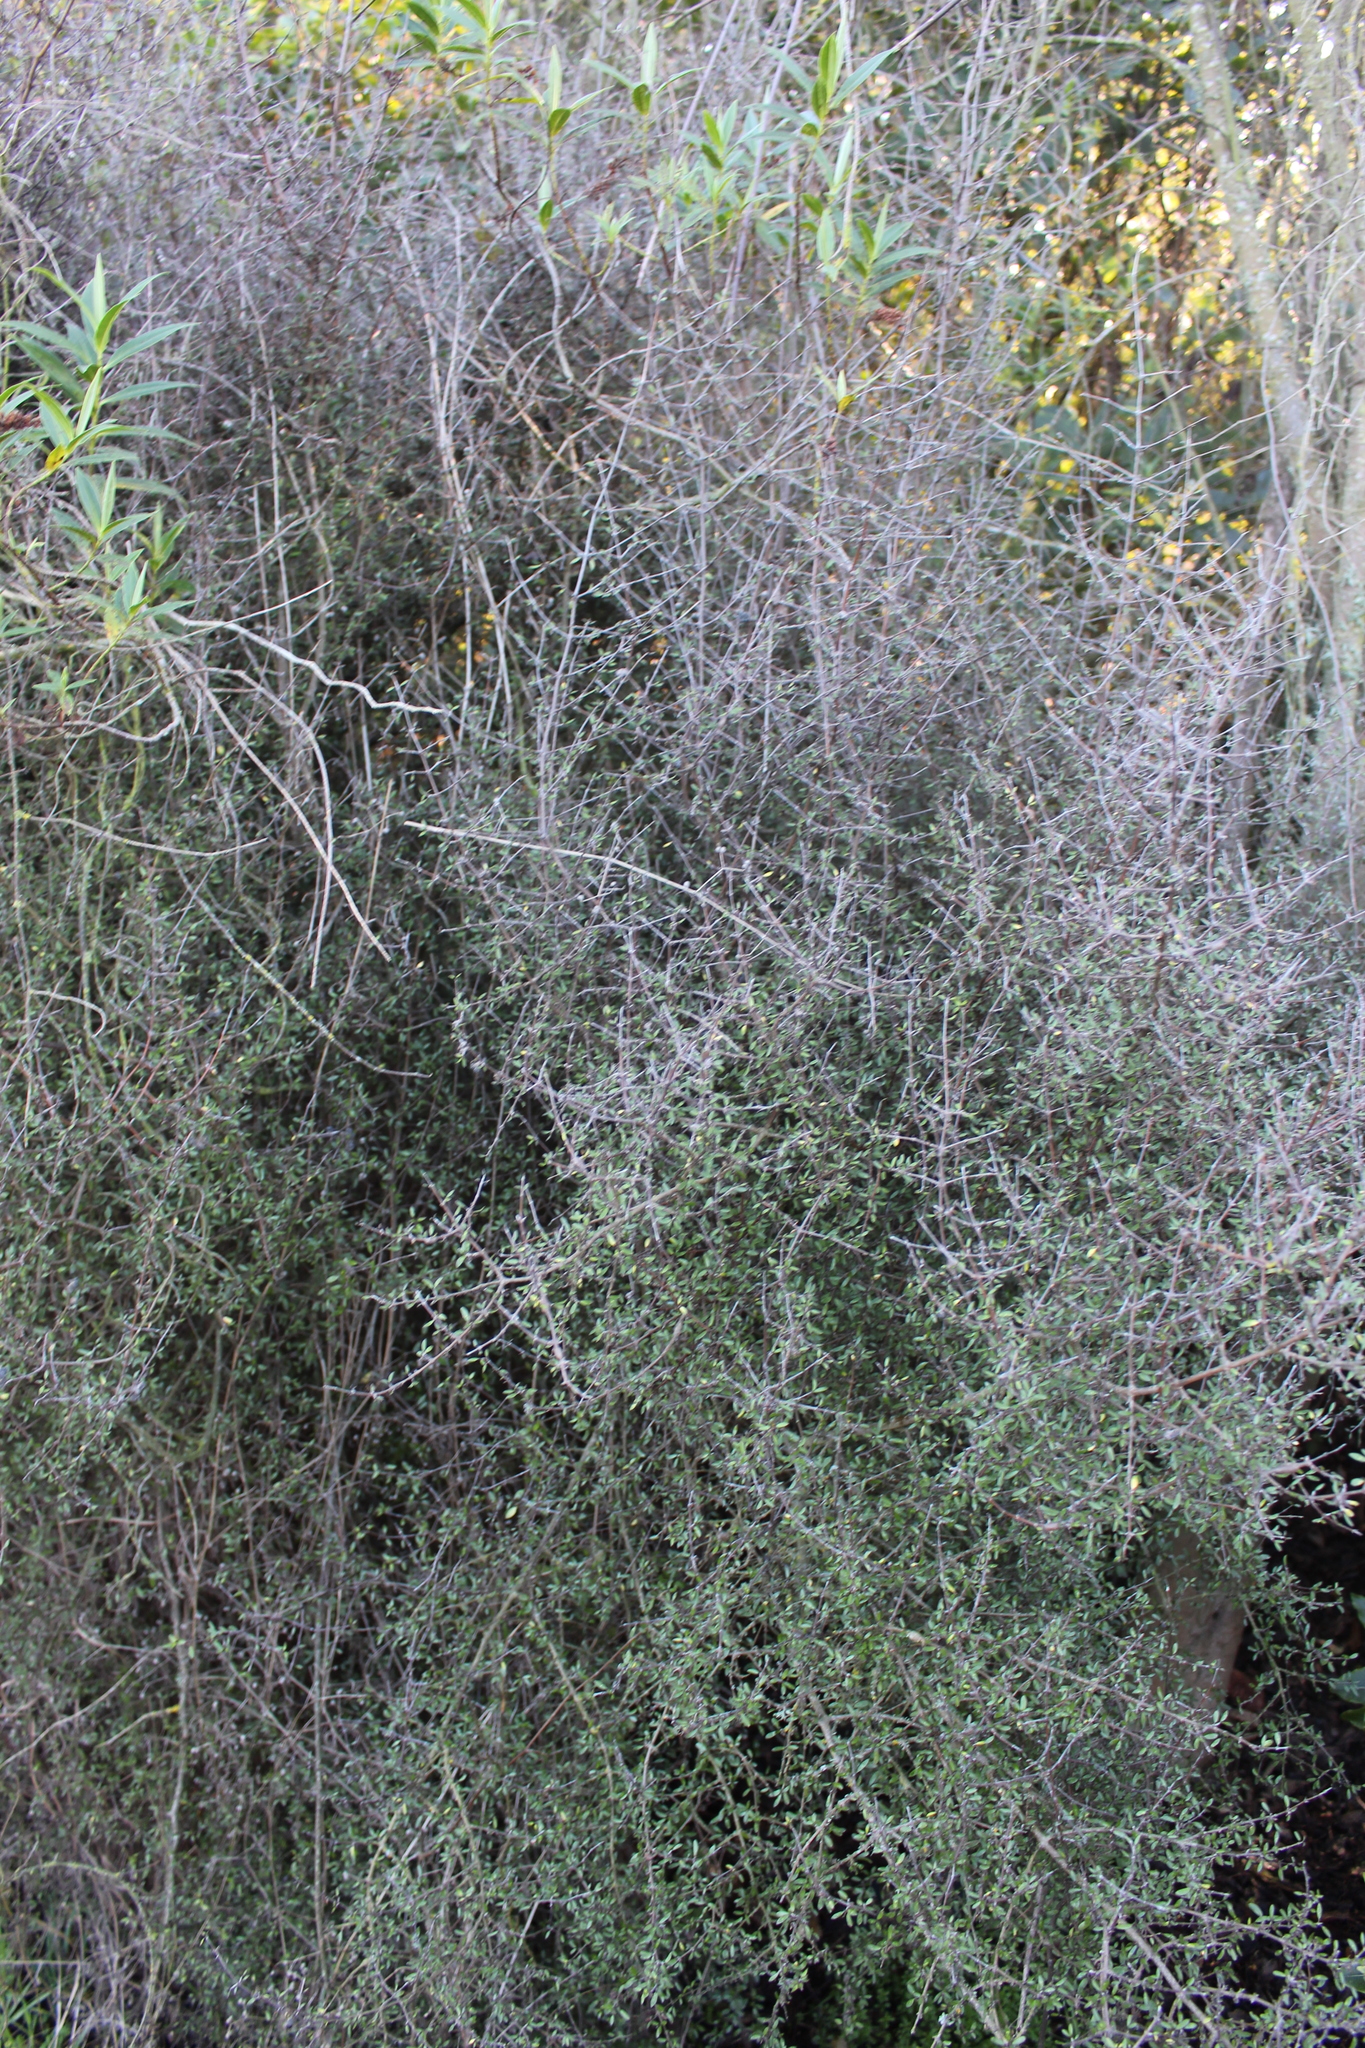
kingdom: Plantae
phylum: Tracheophyta
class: Magnoliopsida
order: Gentianales
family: Rubiaceae
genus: Coprosma
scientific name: Coprosma propinqua
